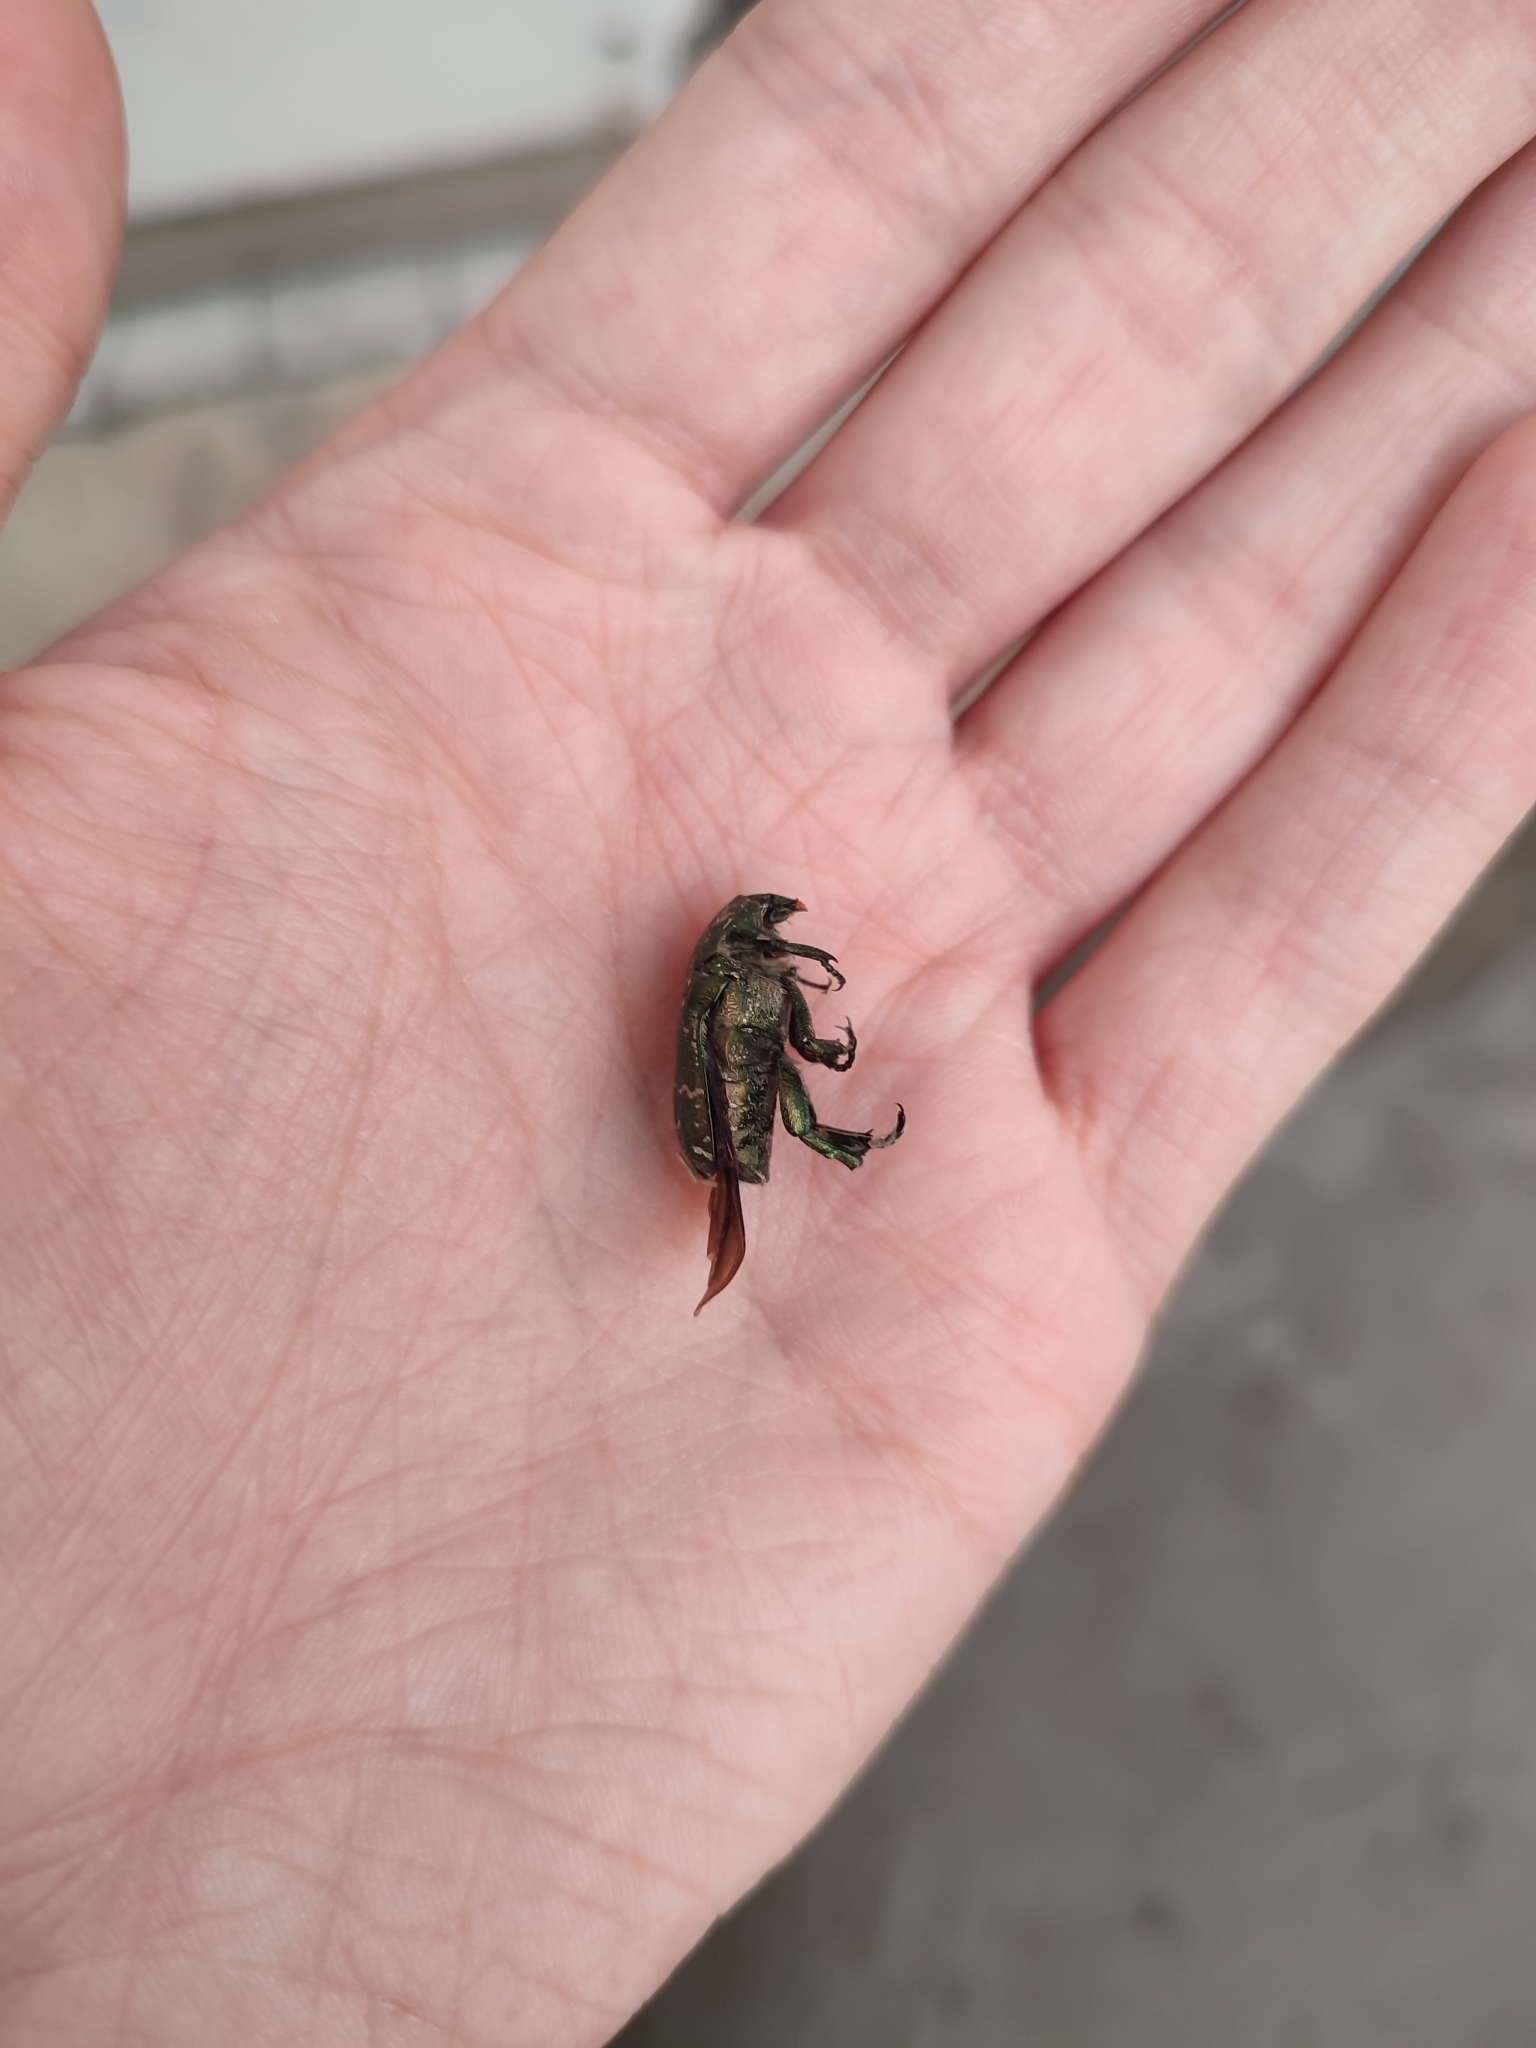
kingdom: Animalia
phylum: Arthropoda
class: Insecta
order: Coleoptera
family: Scarabaeidae
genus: Protaetia
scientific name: Protaetia cuprea
